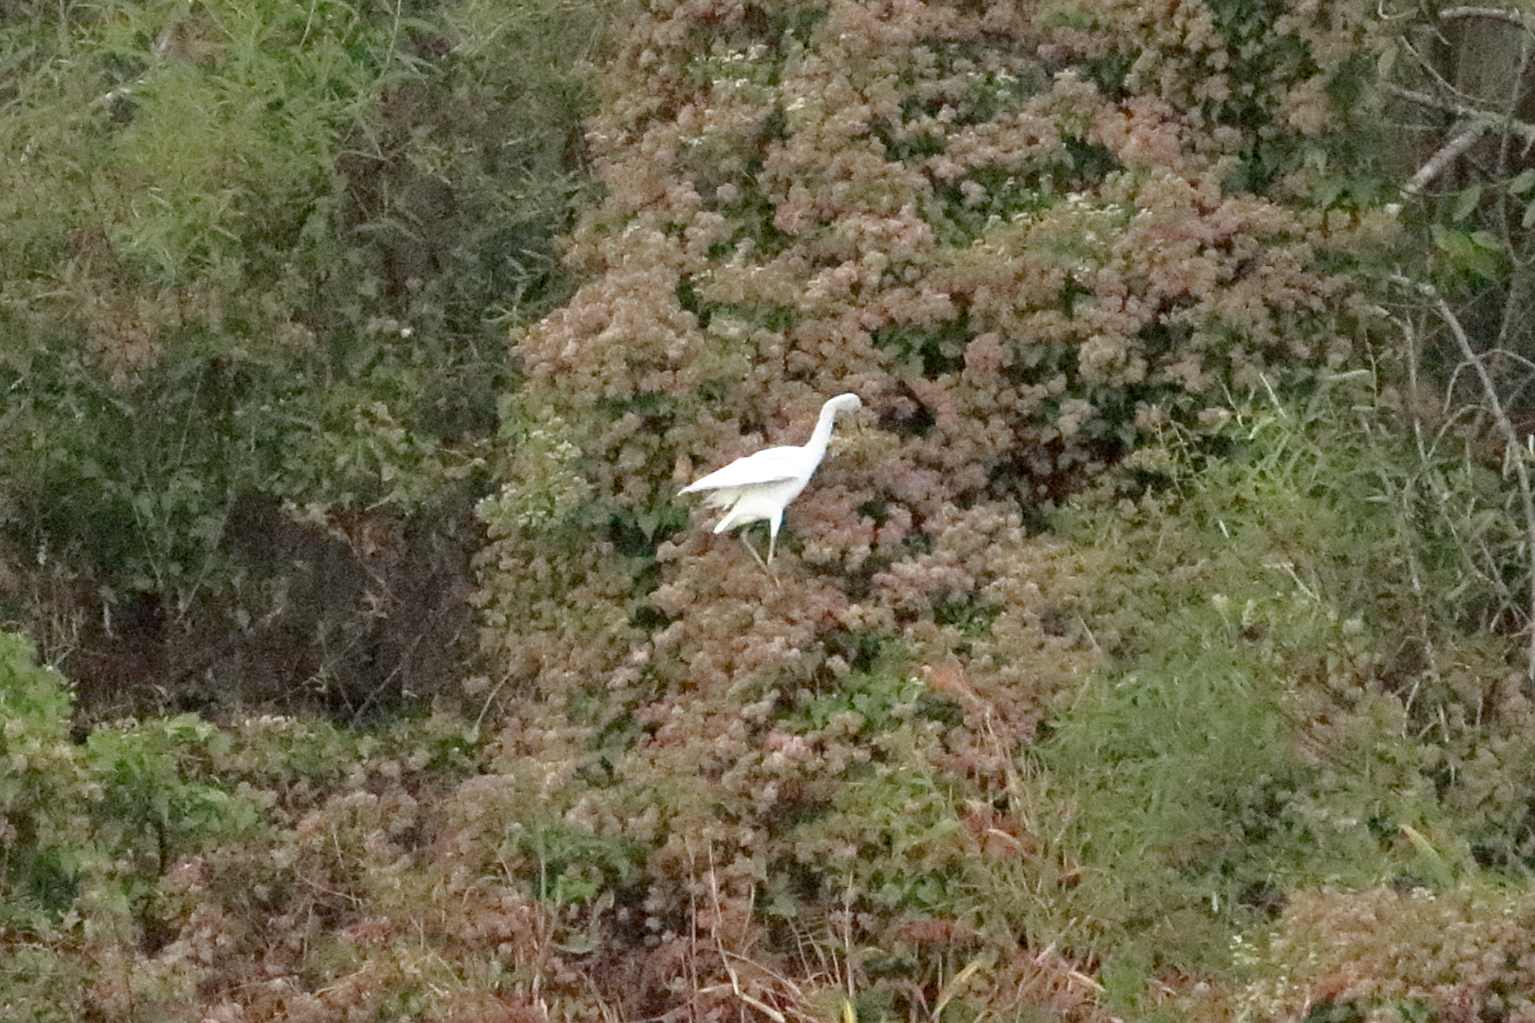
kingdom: Animalia
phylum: Chordata
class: Aves
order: Pelecaniformes
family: Ardeidae
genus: Egretta
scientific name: Egretta caerulea
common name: Little blue heron
